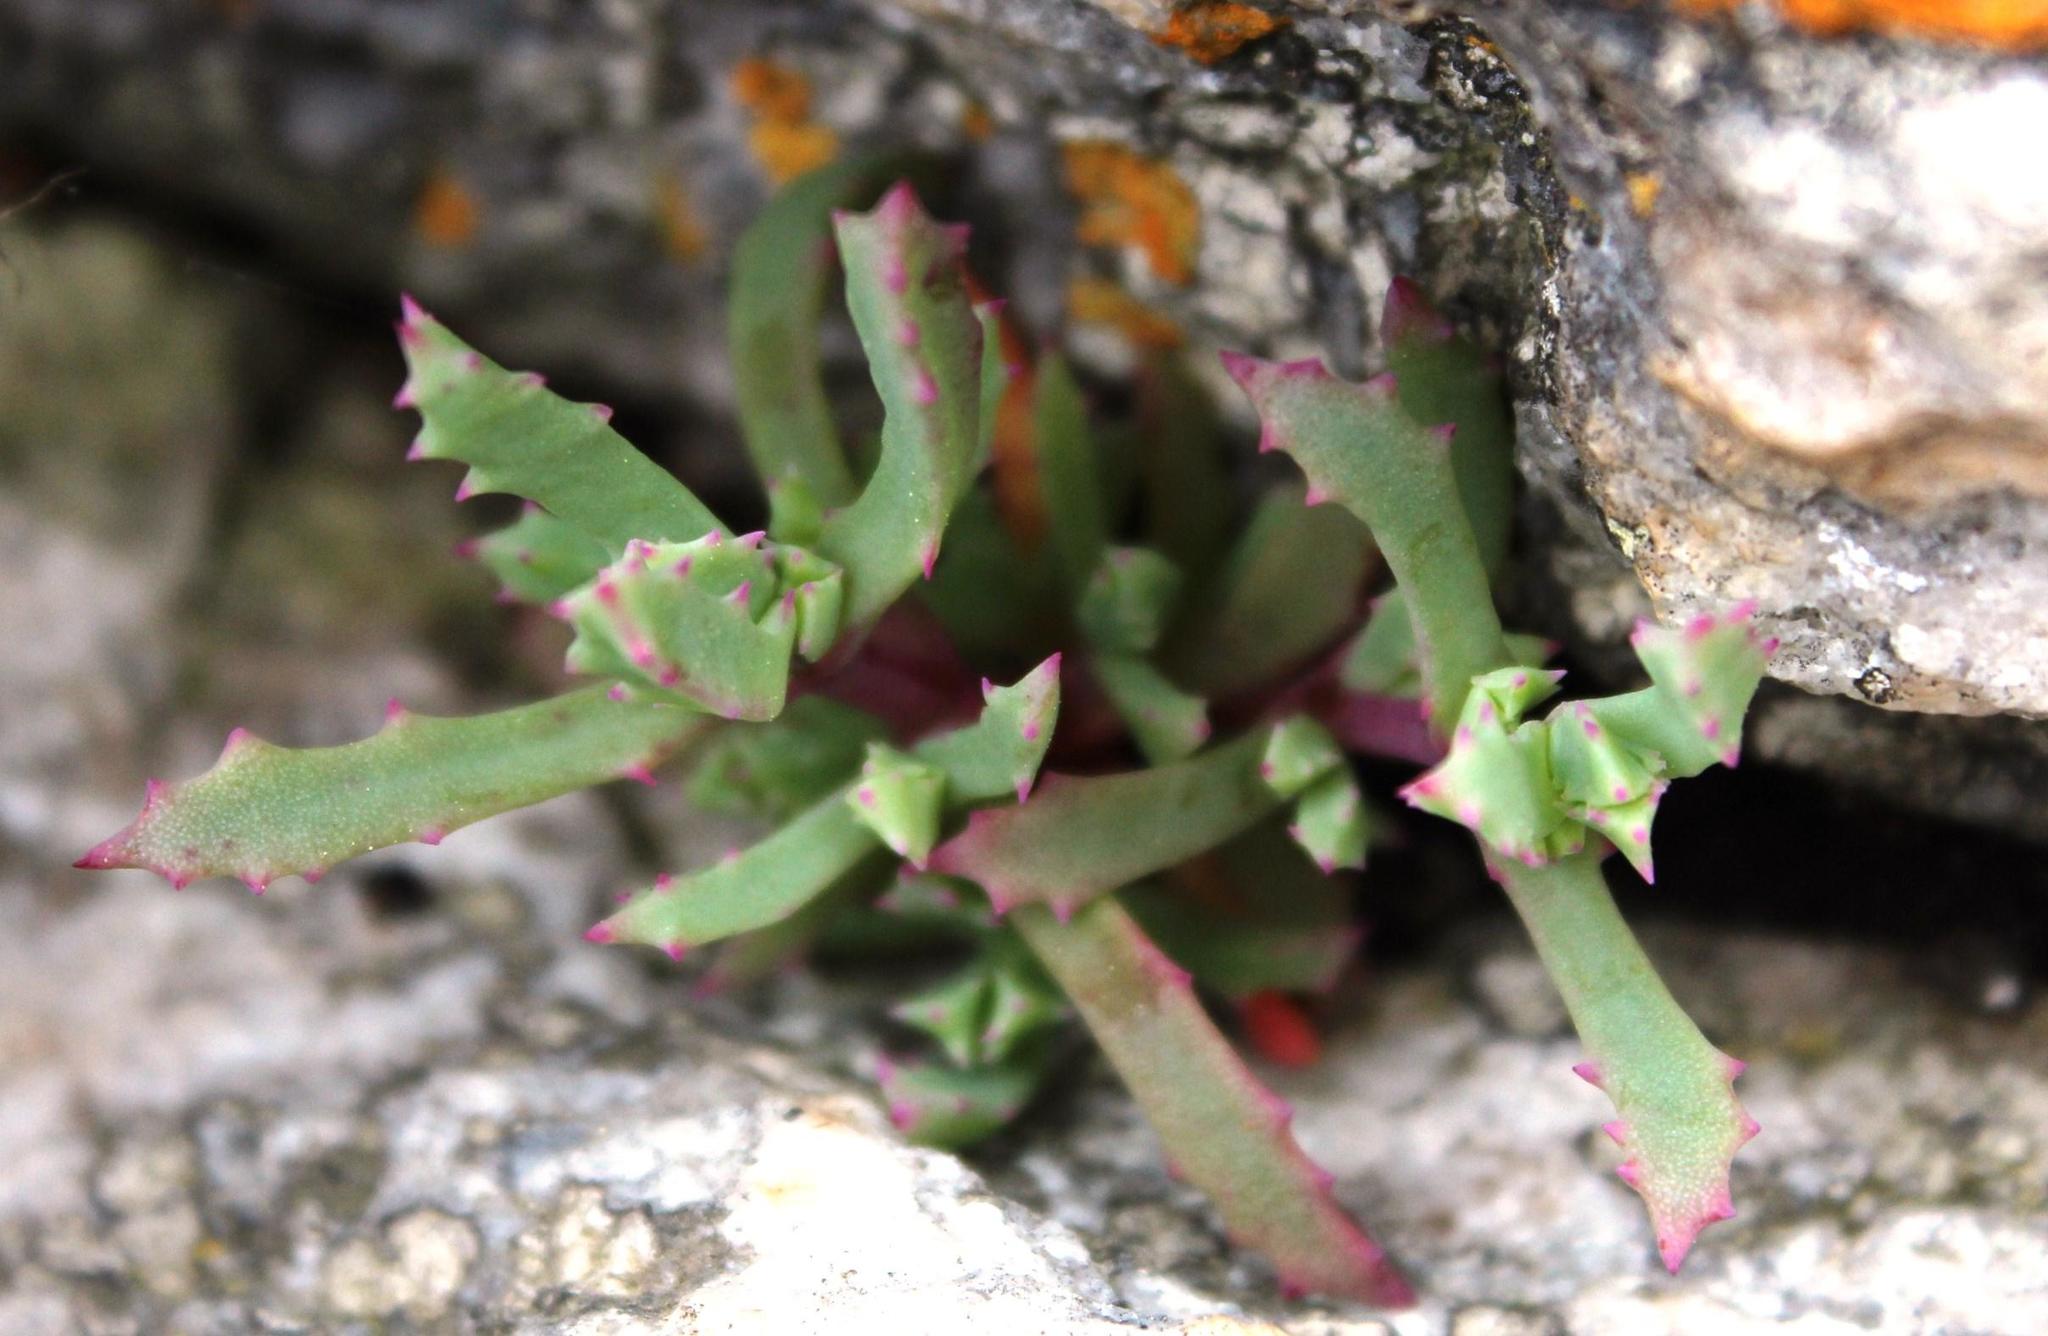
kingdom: Plantae
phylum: Tracheophyta
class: Magnoliopsida
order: Caryophyllales
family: Aizoaceae
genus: Oscularia
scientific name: Oscularia deltoides
